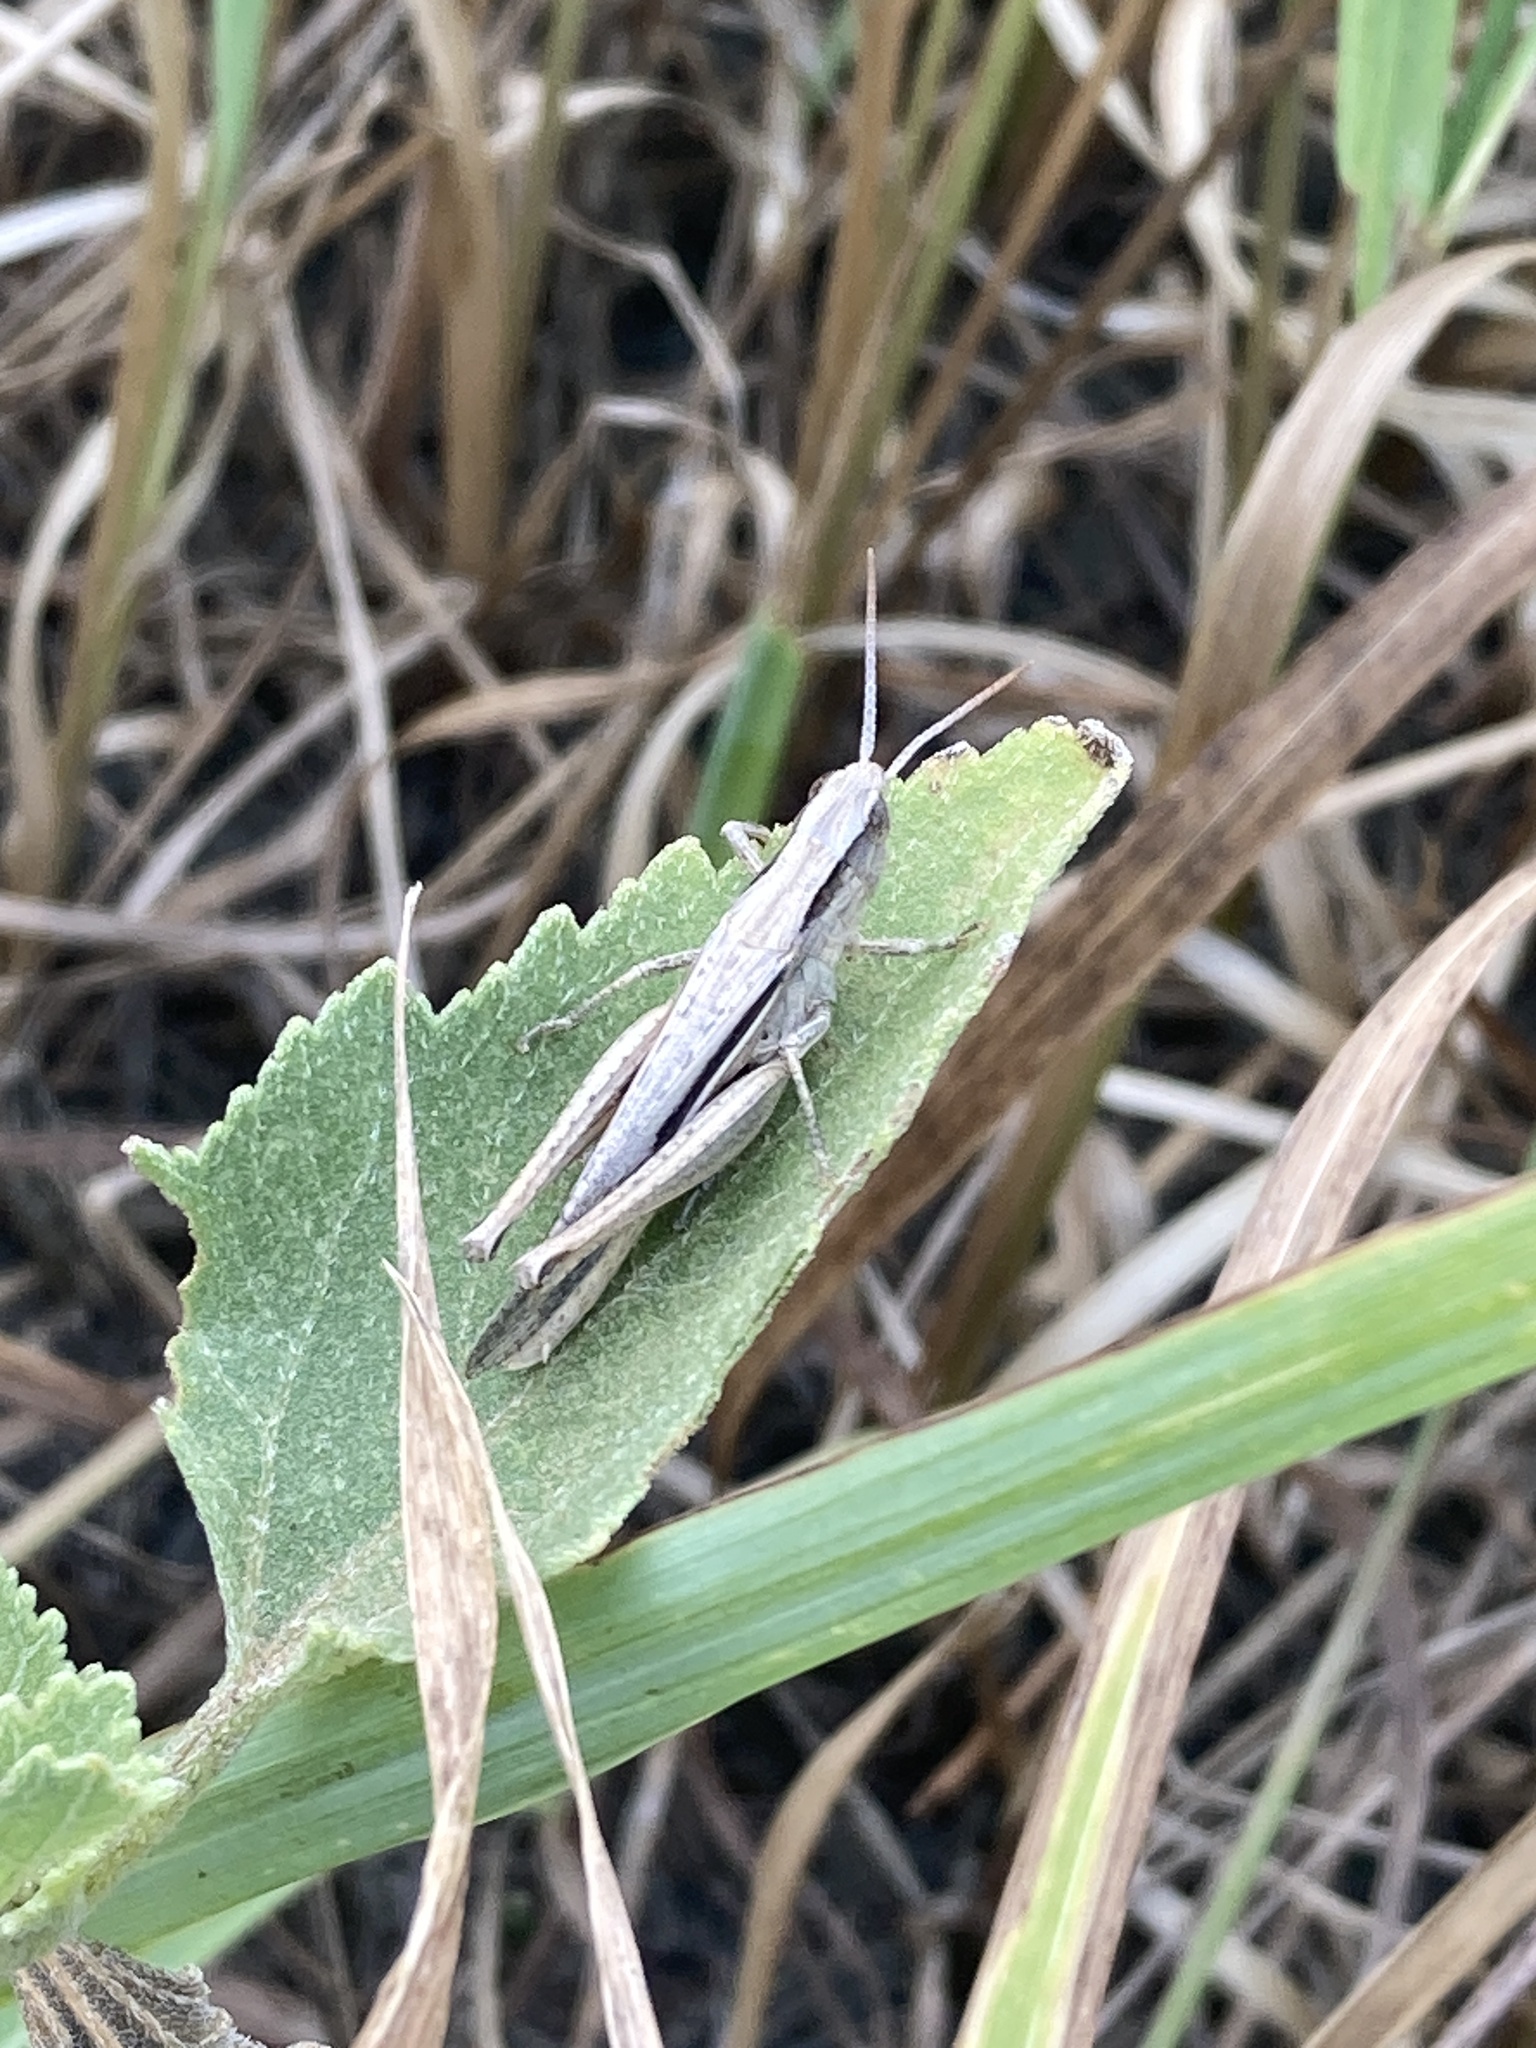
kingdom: Animalia
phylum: Arthropoda
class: Insecta
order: Orthoptera
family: Acrididae
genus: Chorthippus
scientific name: Chorthippus dichrous
